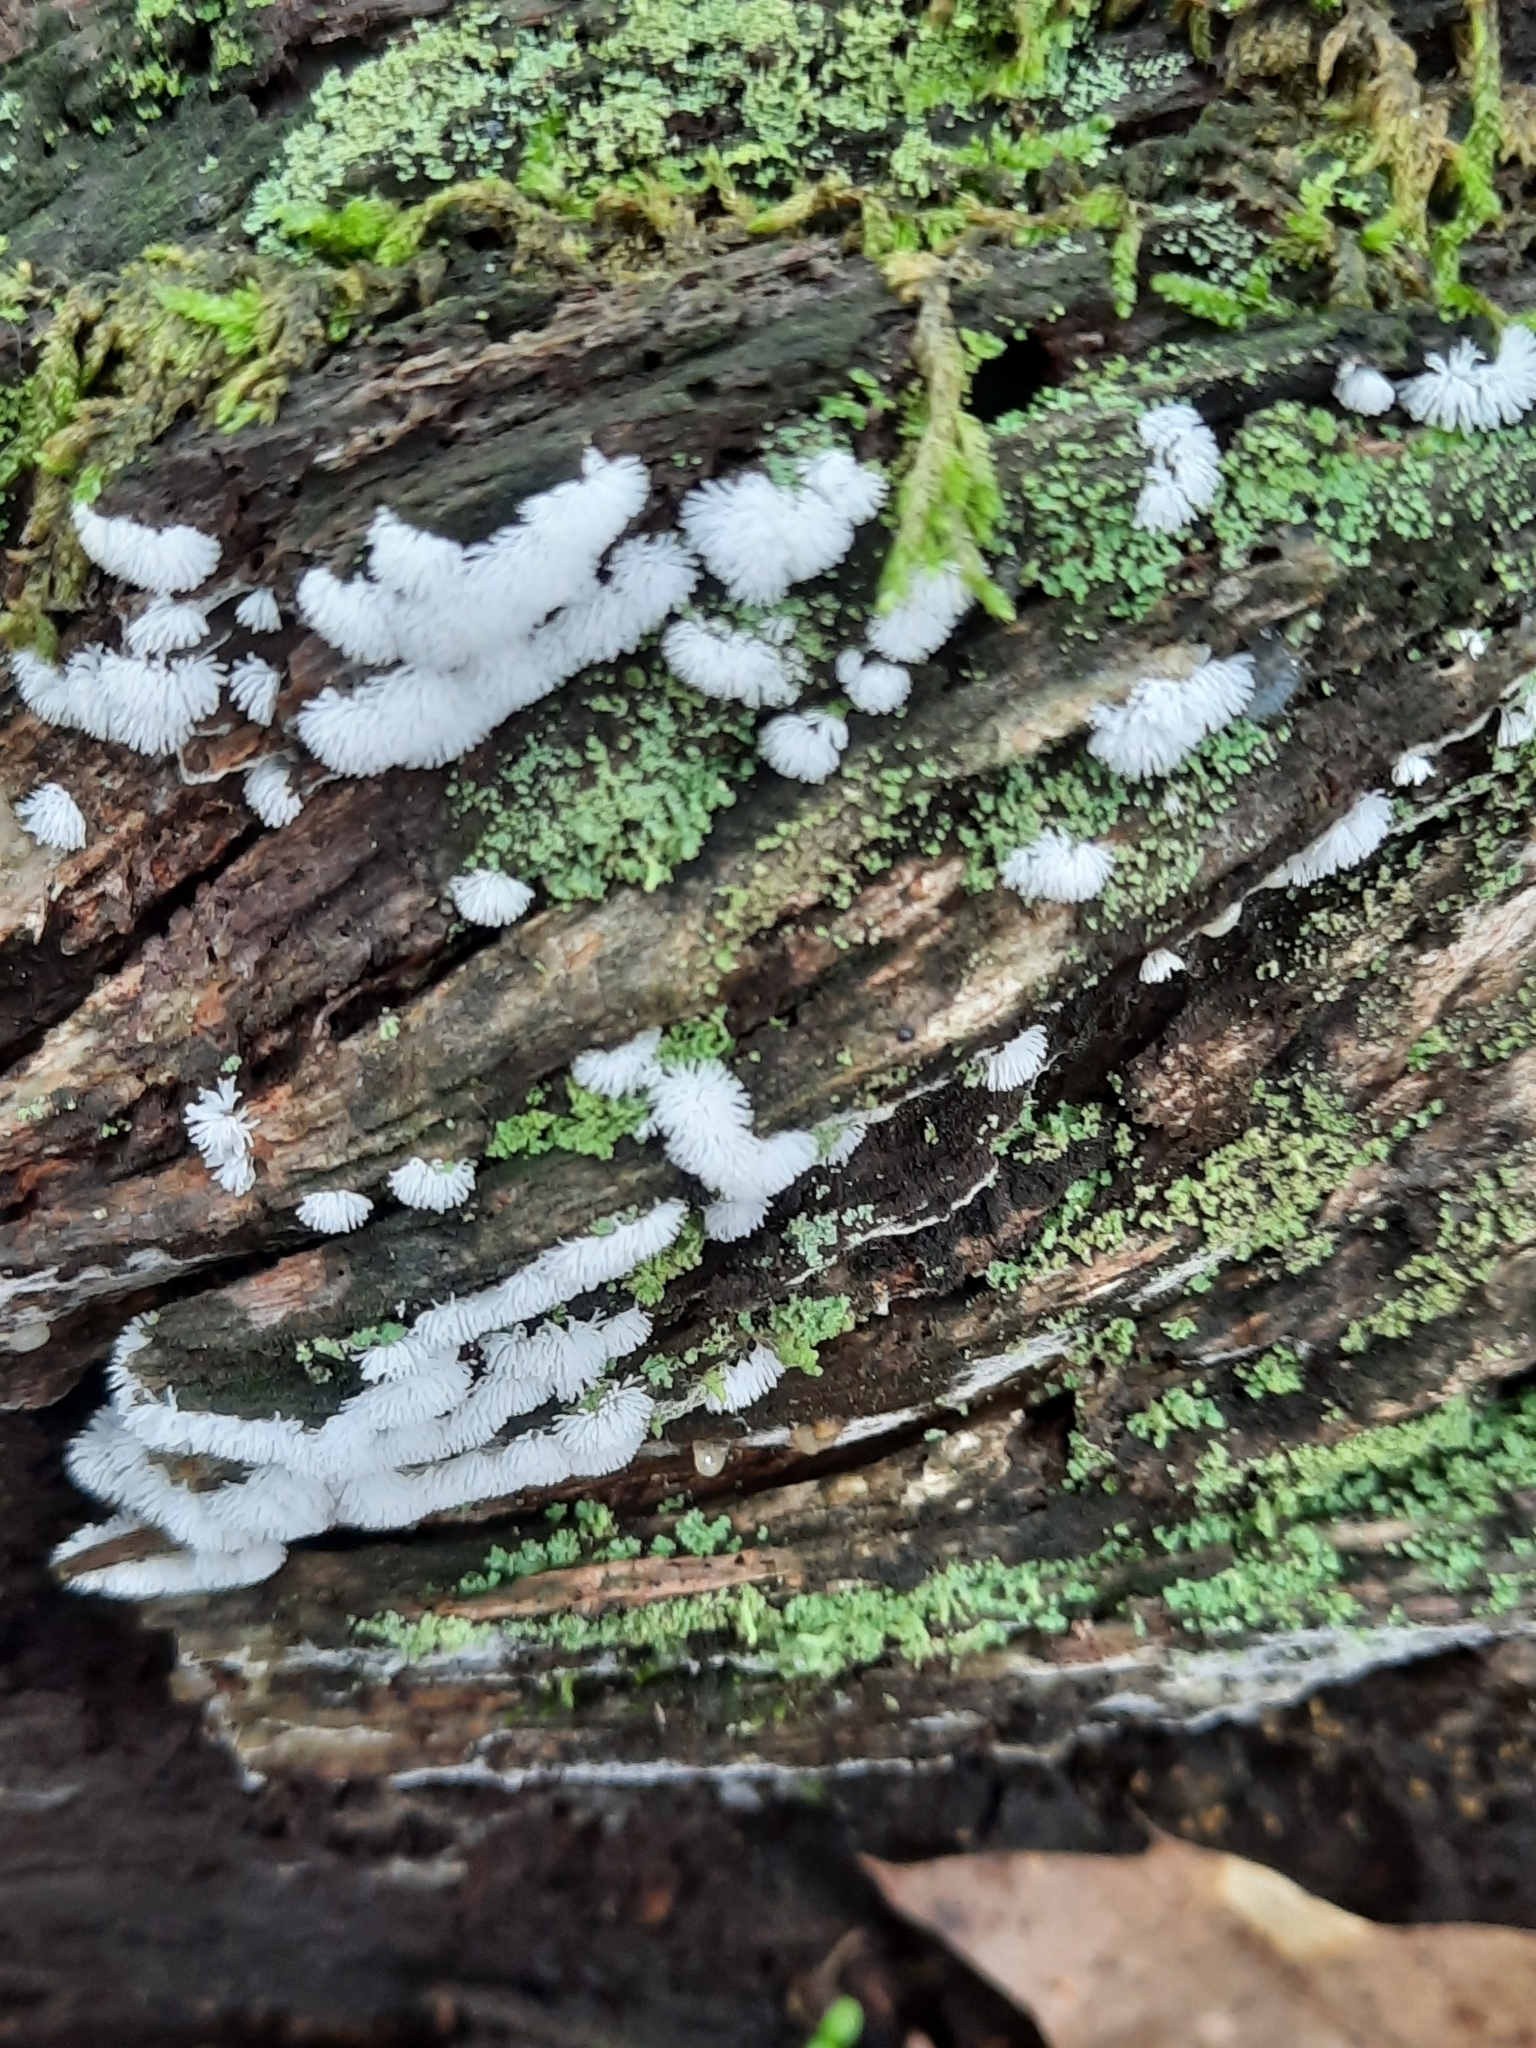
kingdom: Protozoa
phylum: Mycetozoa
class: Protosteliomycetes
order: Ceratiomyxales
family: Ceratiomyxaceae
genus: Ceratiomyxa
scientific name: Ceratiomyxa fruticulosa
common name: Honeycomb coral slime mold
